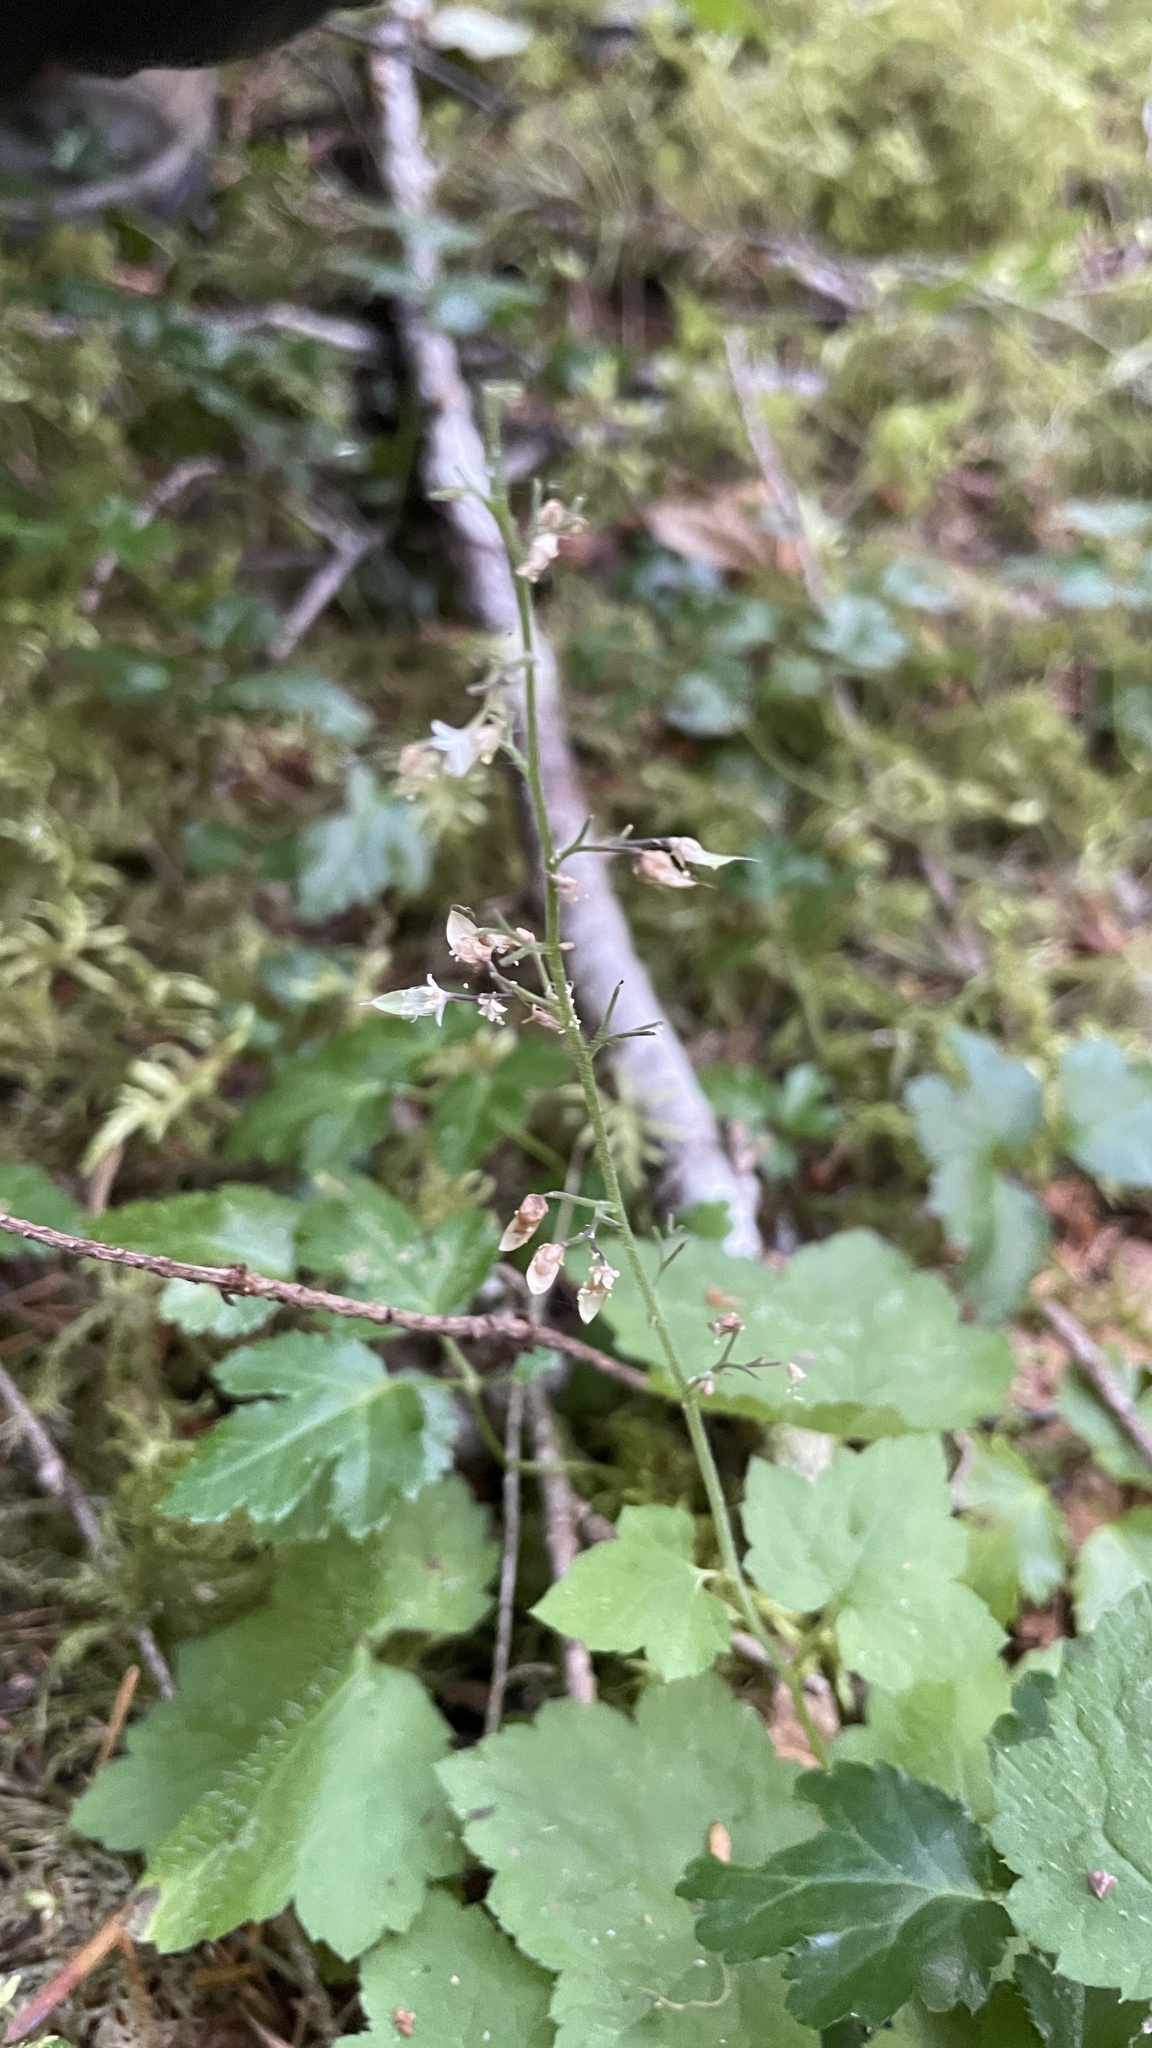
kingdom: Plantae
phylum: Tracheophyta
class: Magnoliopsida
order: Saxifragales
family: Saxifragaceae
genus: Tiarella
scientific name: Tiarella trifoliata
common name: Sugar-scoop
